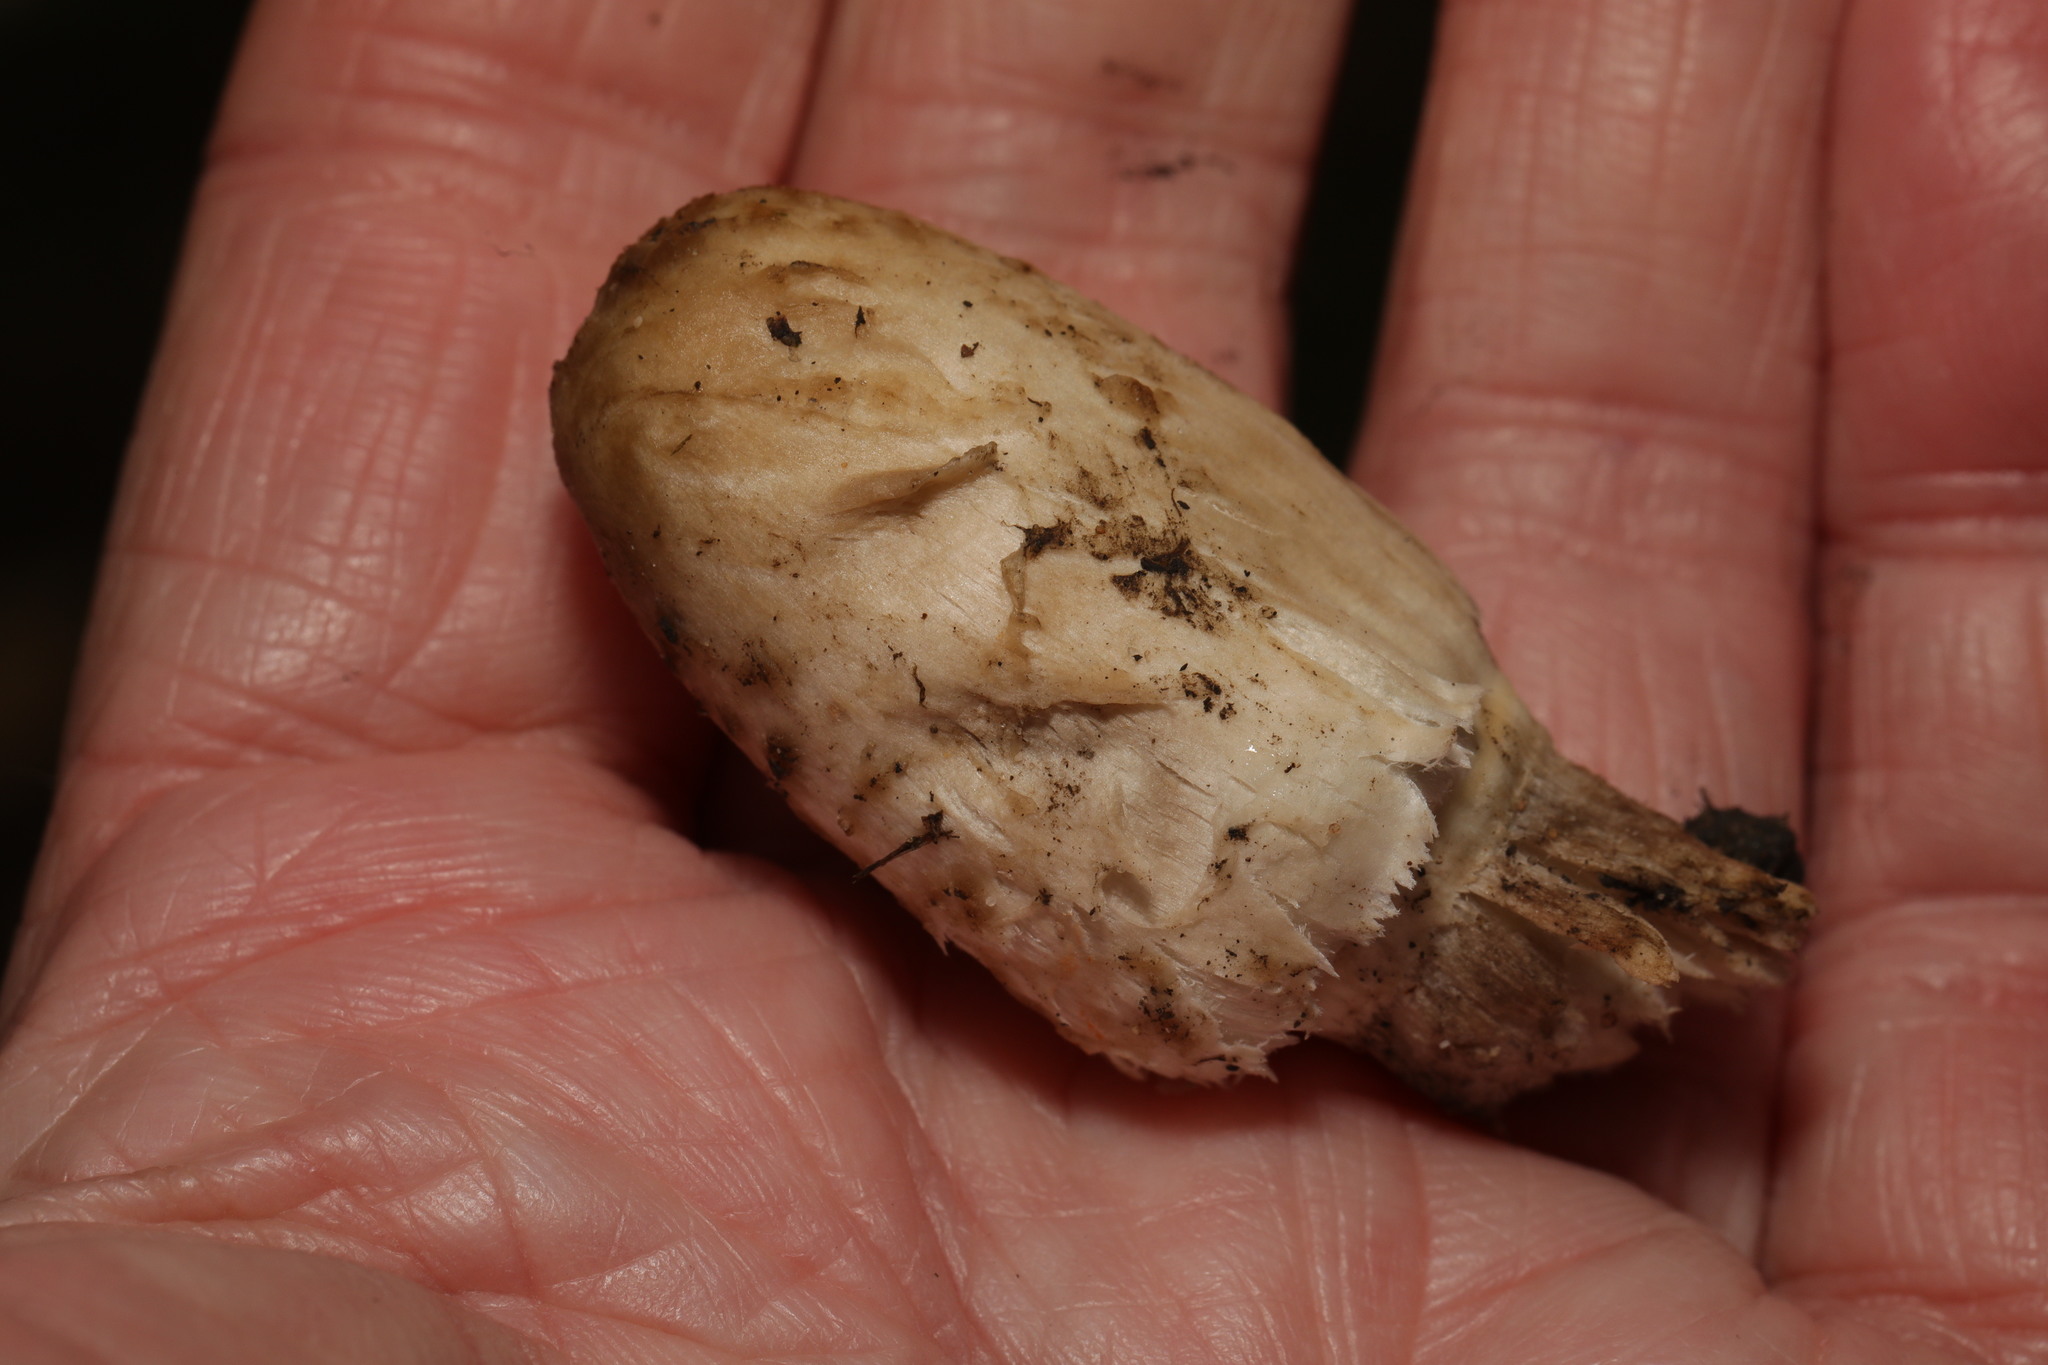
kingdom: Fungi
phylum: Basidiomycota
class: Agaricomycetes
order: Agaricales
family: Agaricaceae
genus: Coprinus
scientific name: Coprinus comatus
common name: Lawyer's wig
